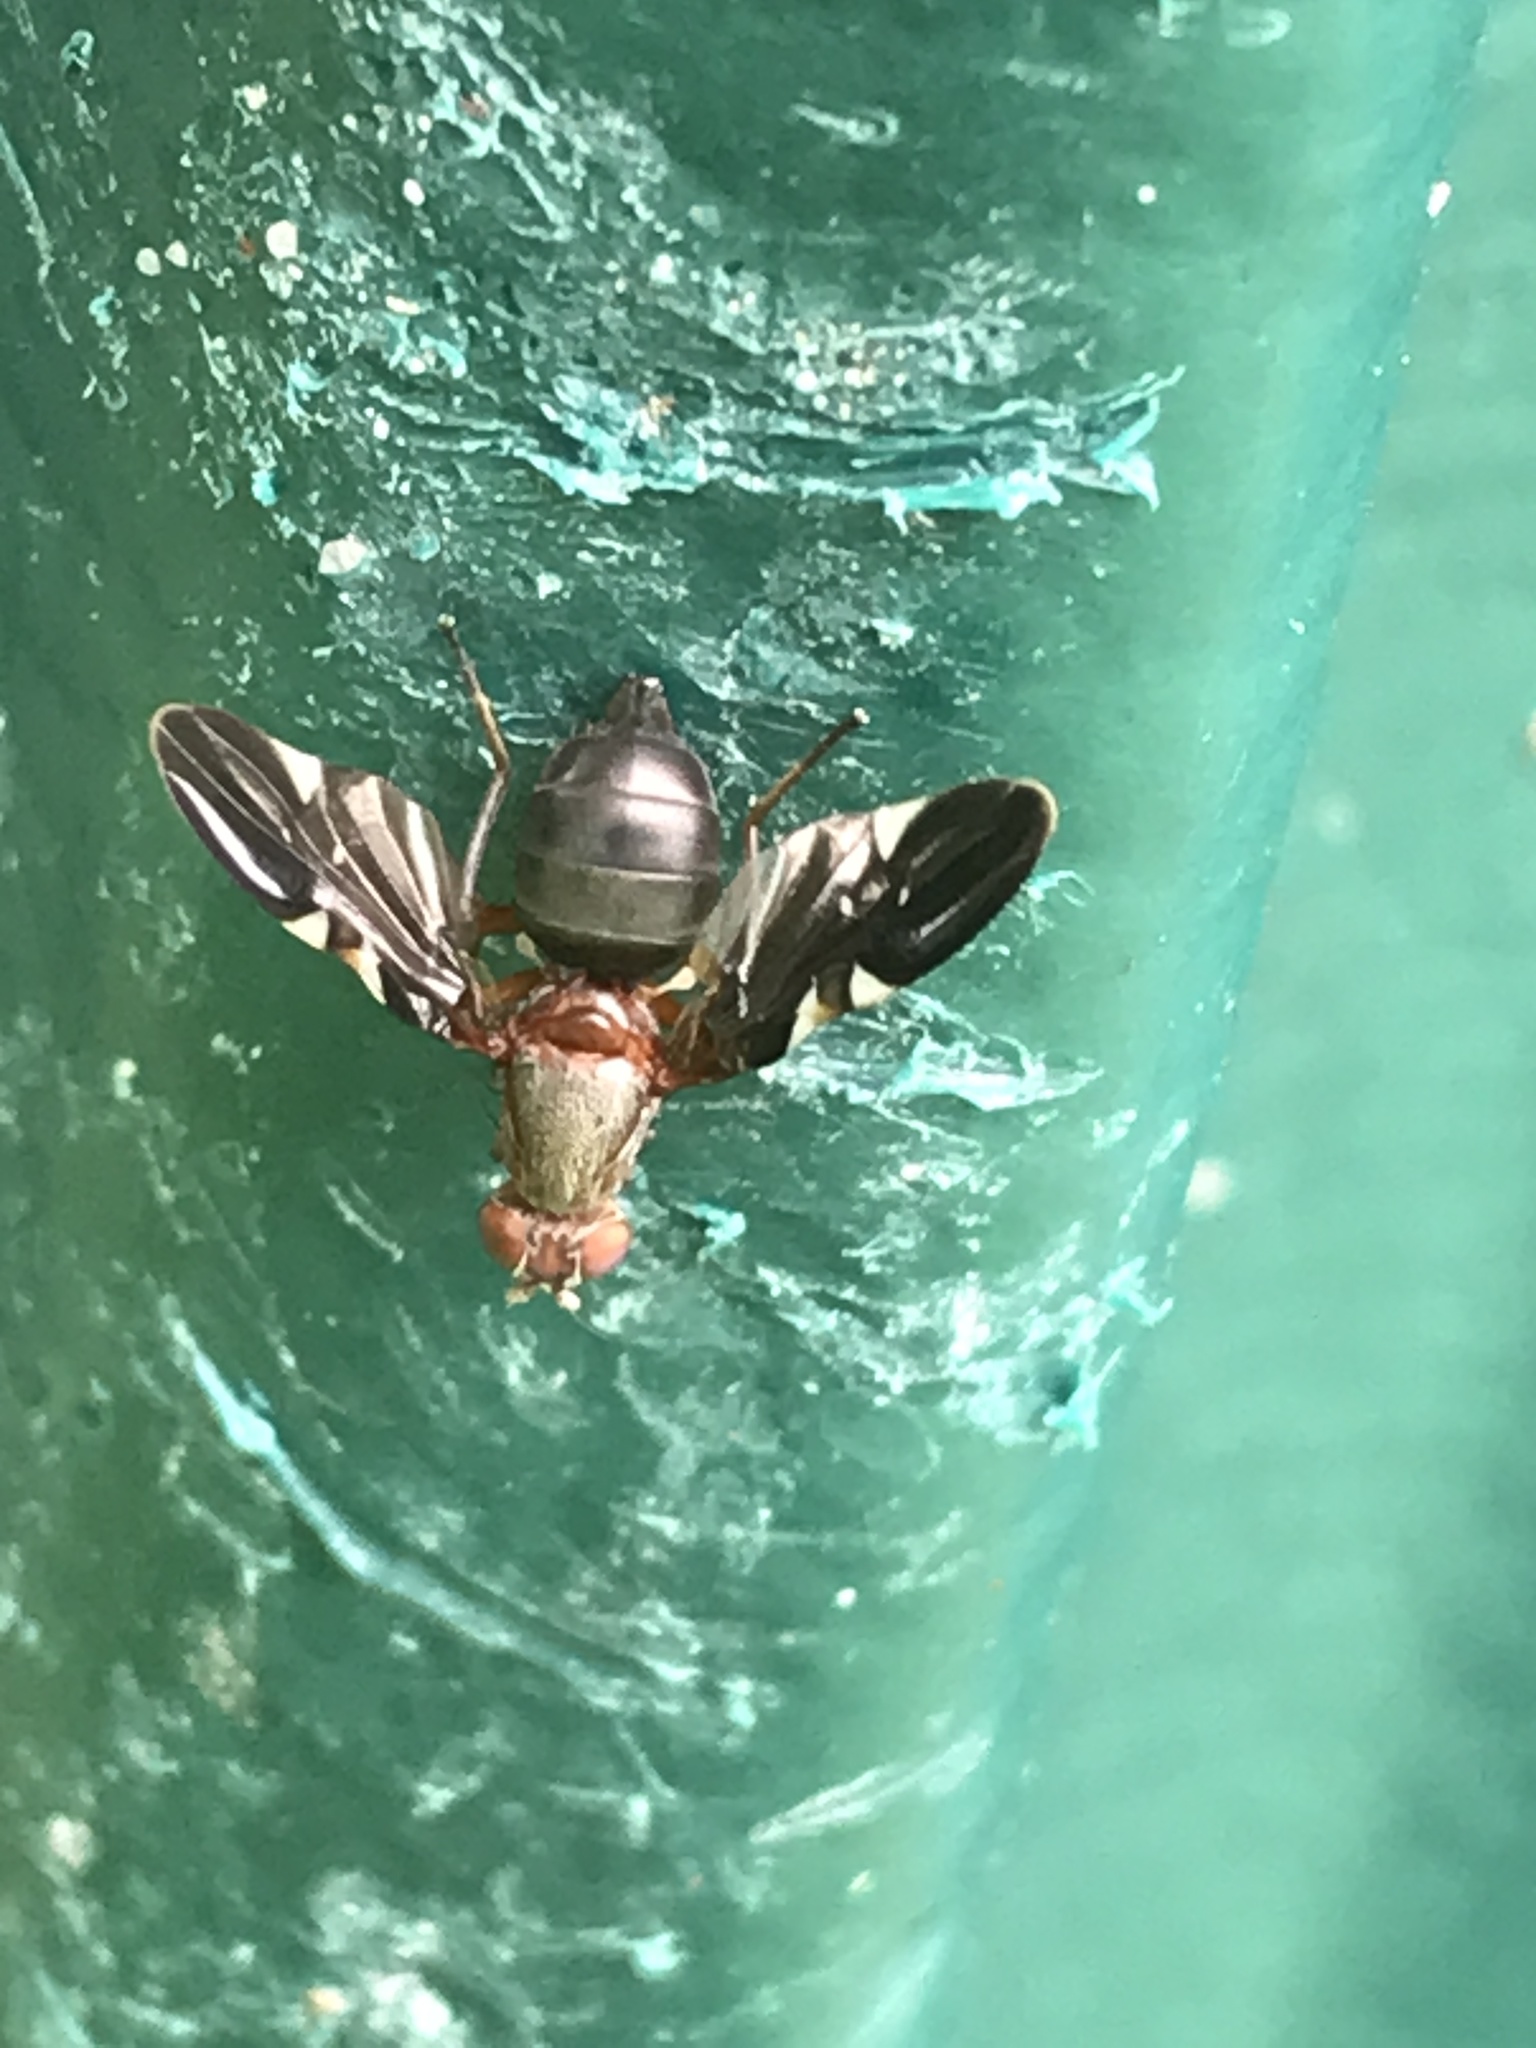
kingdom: Animalia
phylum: Arthropoda
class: Insecta
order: Diptera
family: Ulidiidae
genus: Delphinia
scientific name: Delphinia picta
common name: Common picture-winged fly
